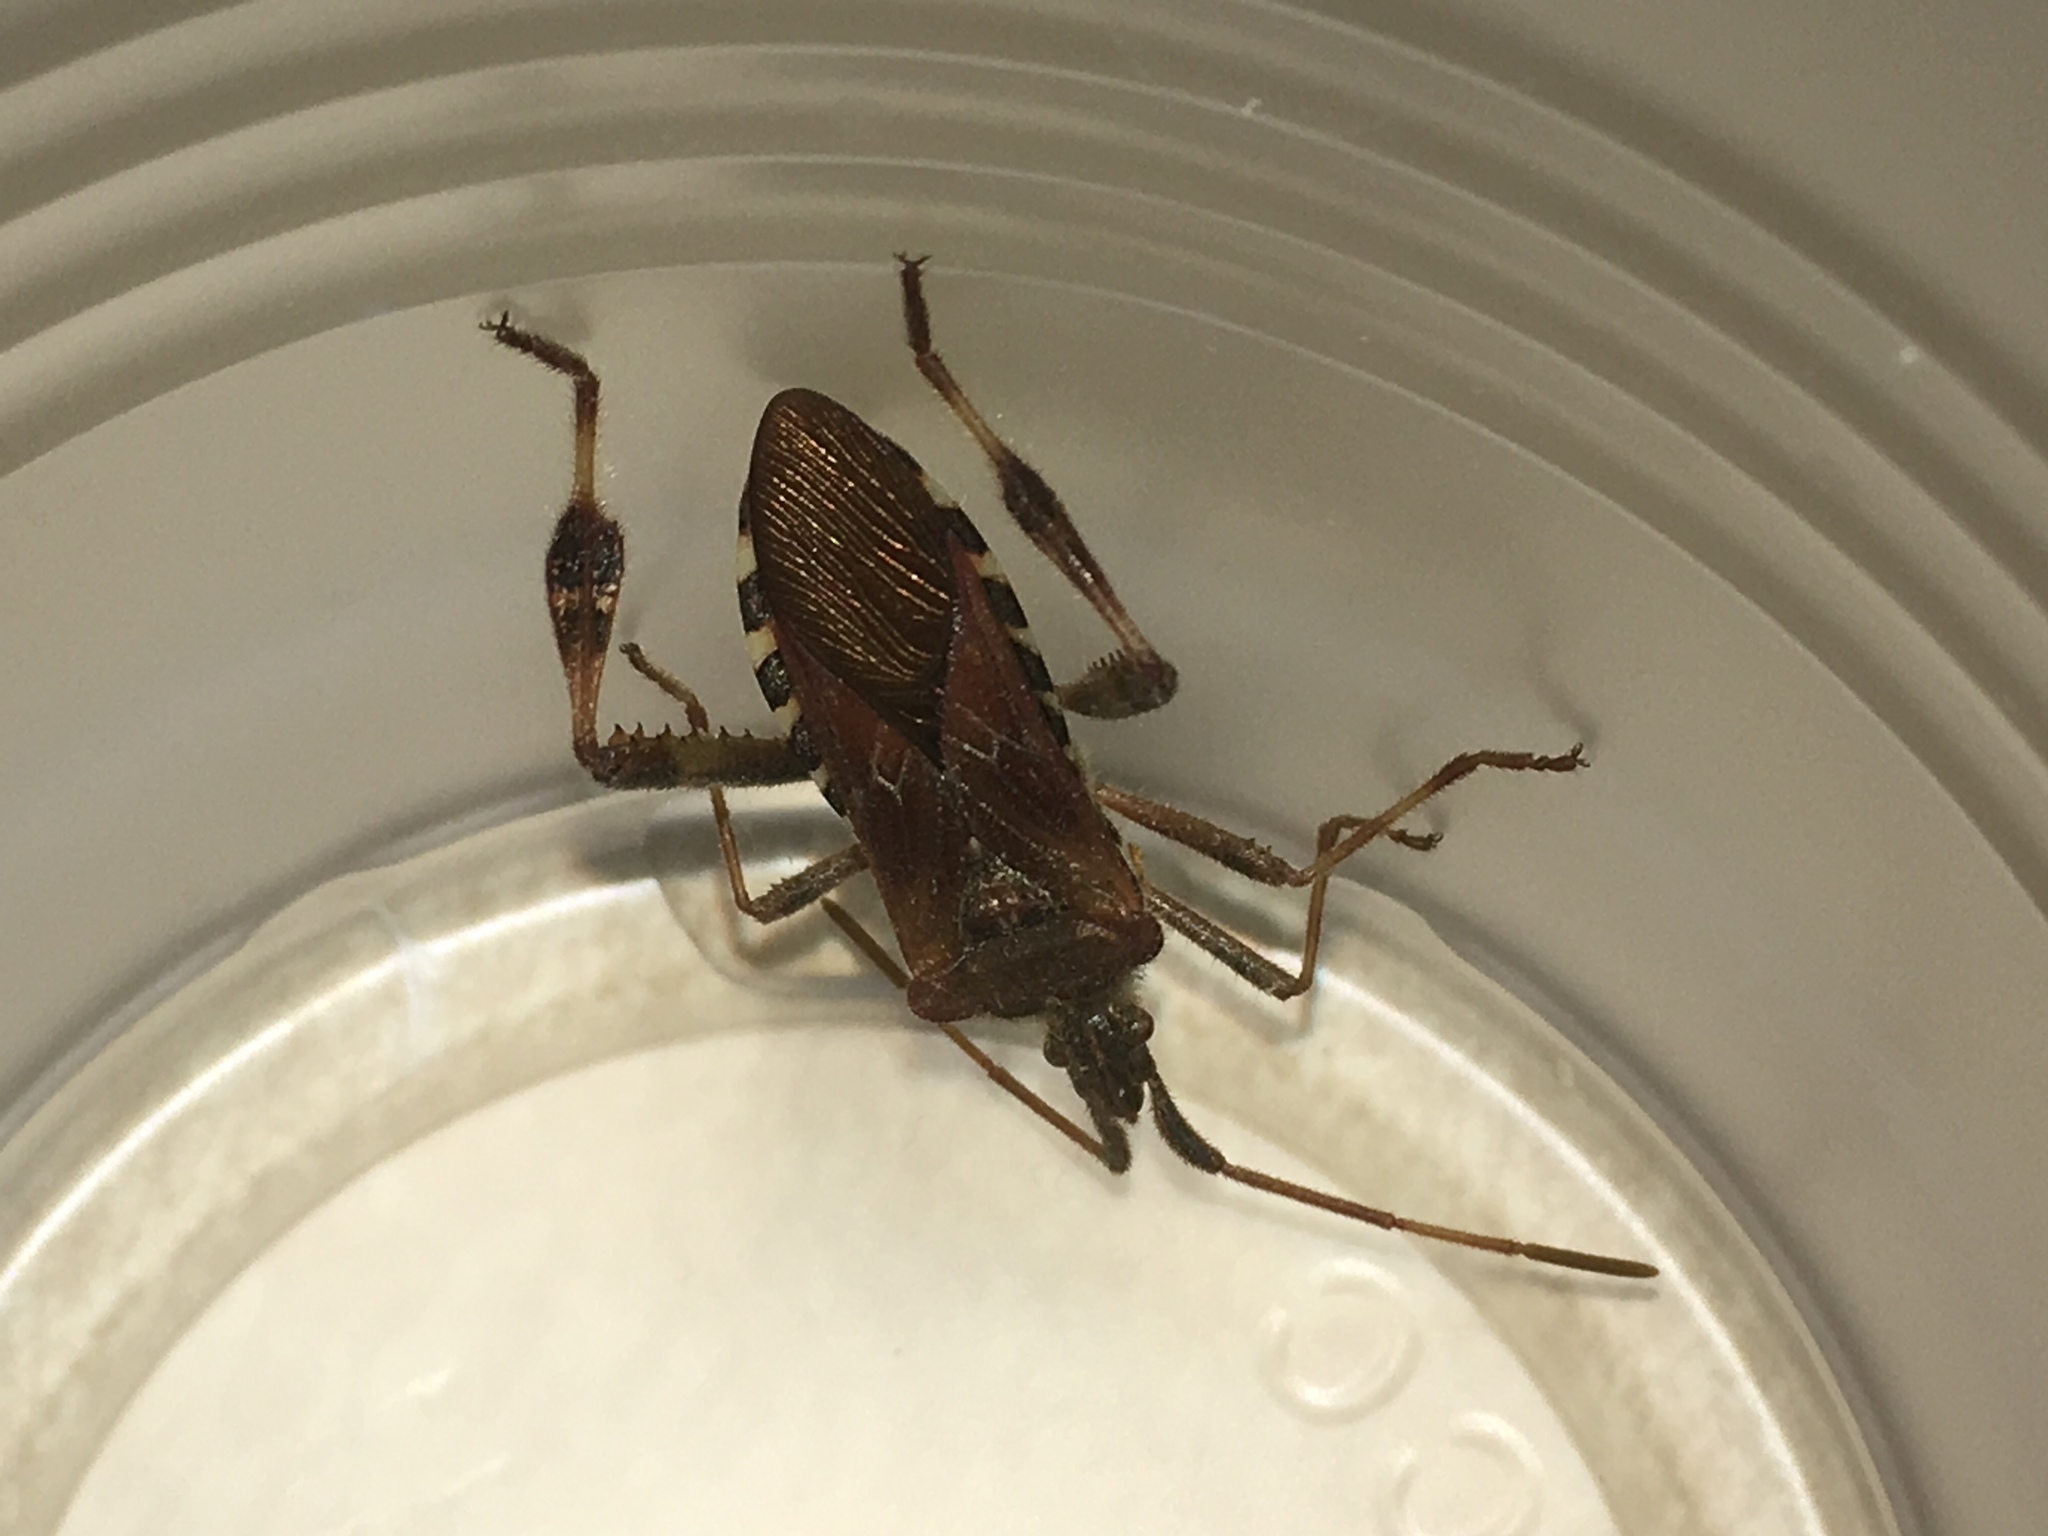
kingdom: Animalia
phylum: Arthropoda
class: Insecta
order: Hemiptera
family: Coreidae
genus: Leptoglossus
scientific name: Leptoglossus occidentalis
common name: Western conifer-seed bug
